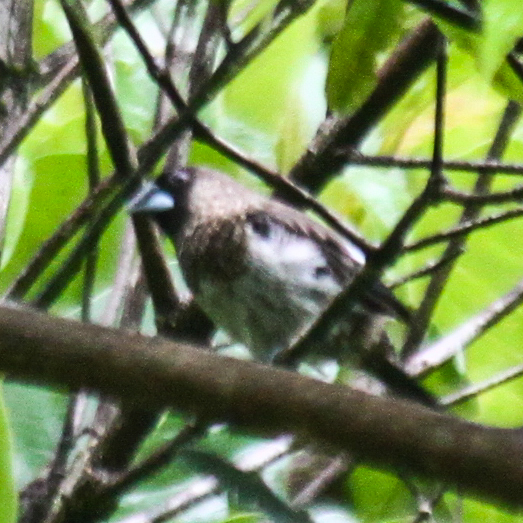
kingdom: Animalia
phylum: Chordata
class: Aves
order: Passeriformes
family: Estrildidae
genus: Lonchura
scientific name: Lonchura striata
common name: White-rumped munia
